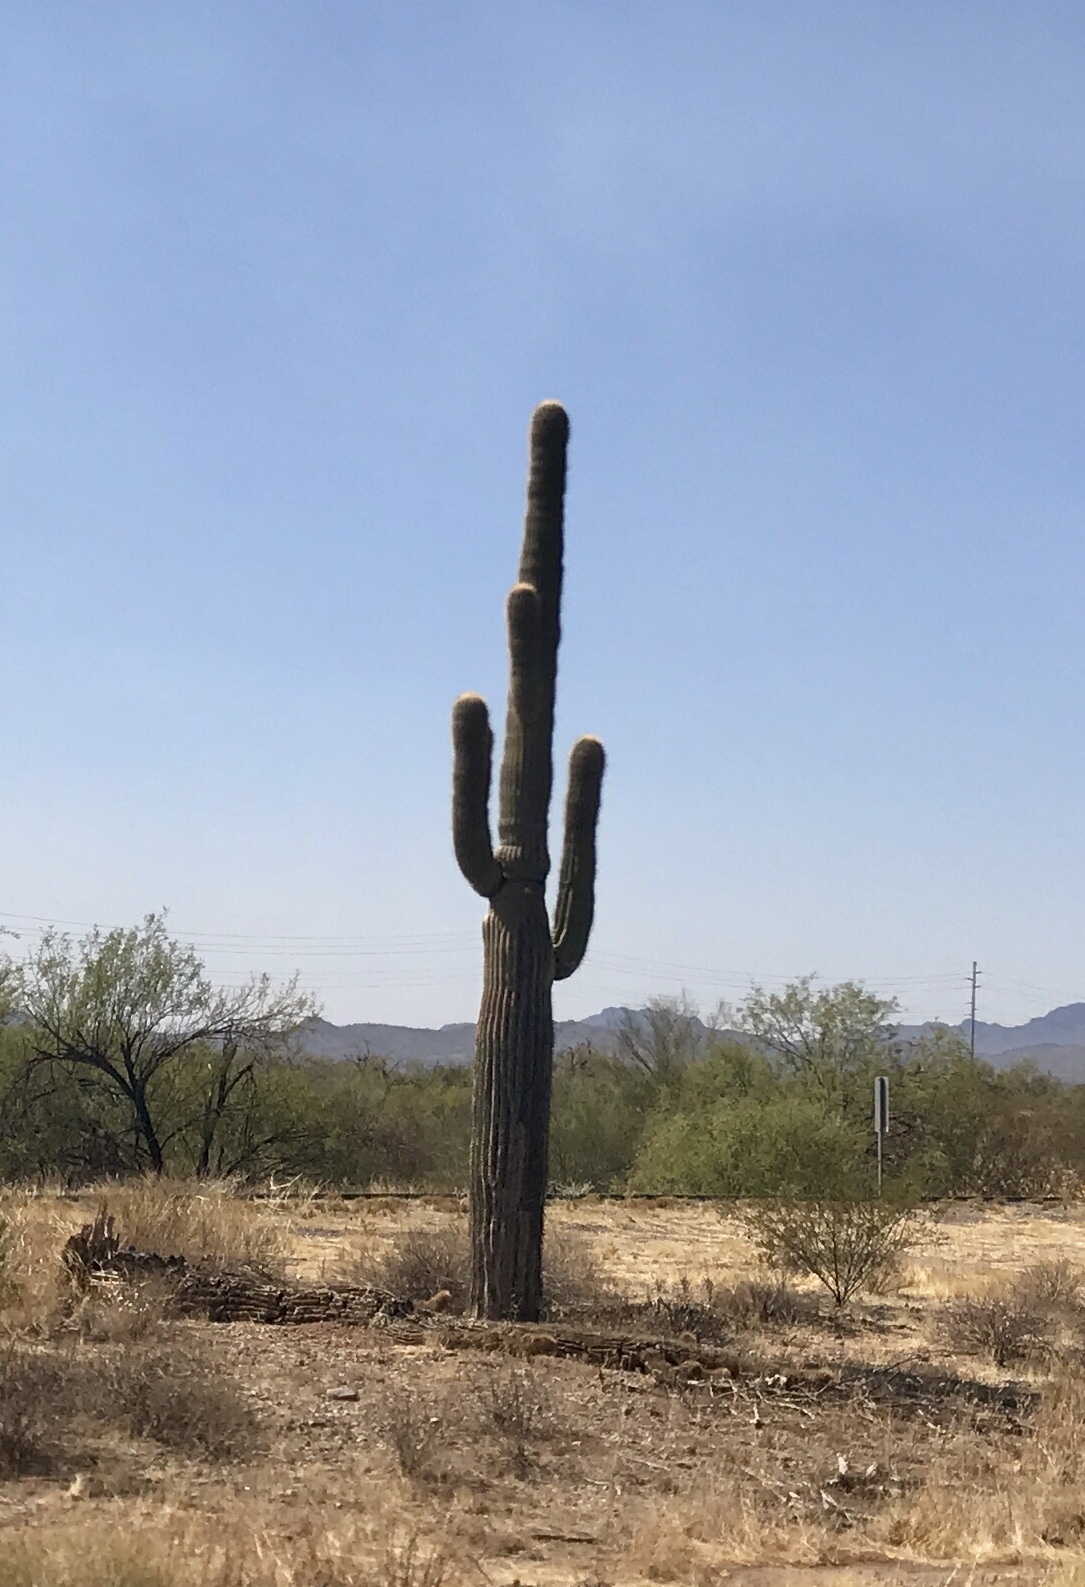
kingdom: Plantae
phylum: Tracheophyta
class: Magnoliopsida
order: Caryophyllales
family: Cactaceae
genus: Carnegiea
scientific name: Carnegiea gigantea
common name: Saguaro
